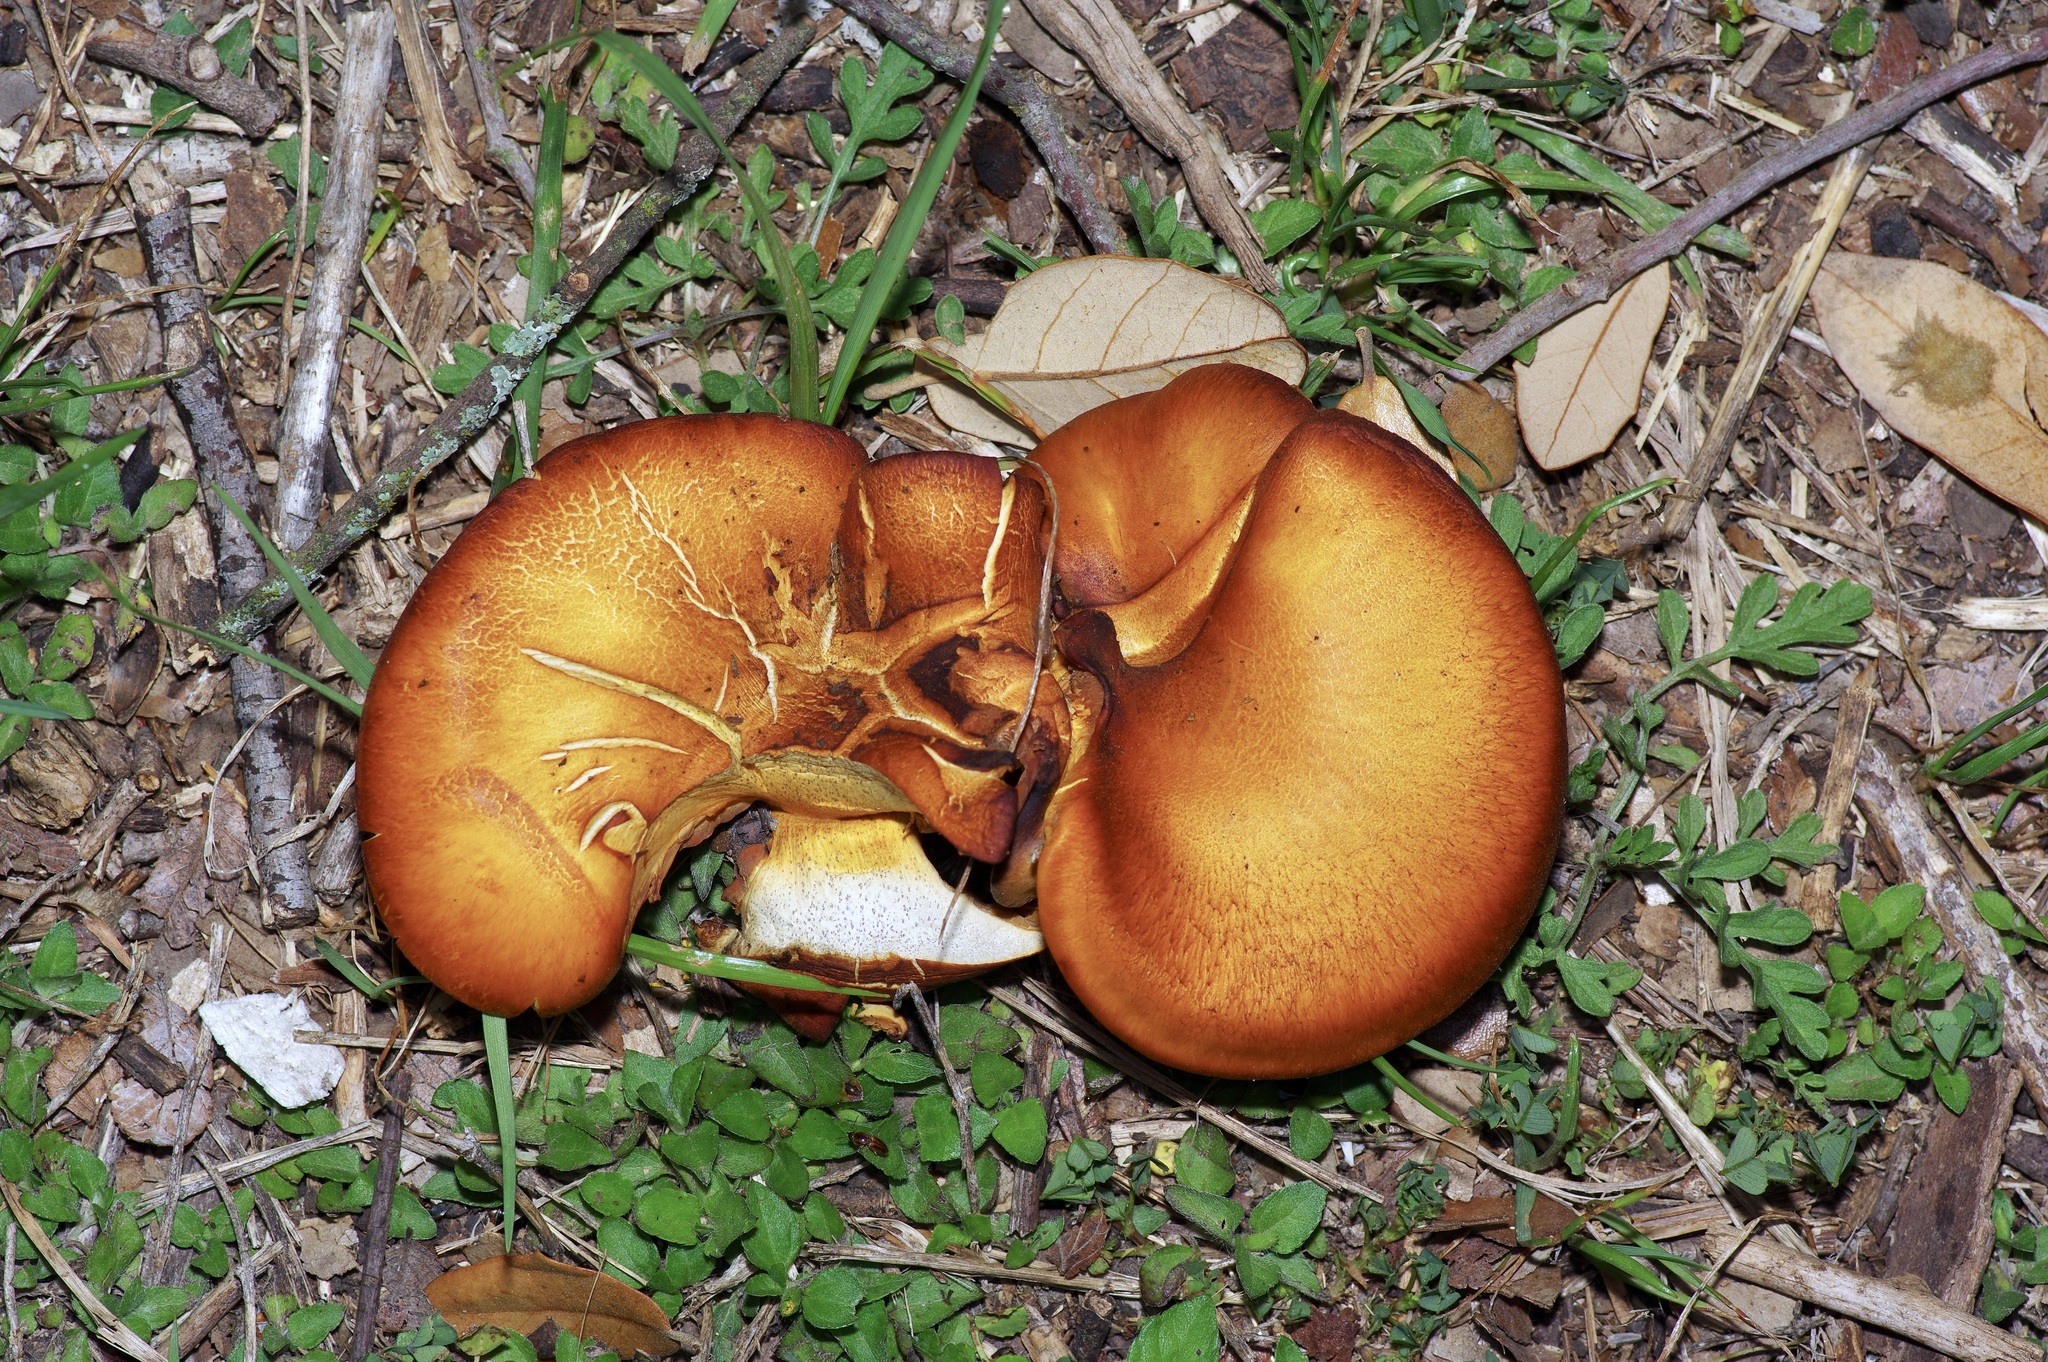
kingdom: Fungi
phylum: Basidiomycota
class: Agaricomycetes
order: Agaricales
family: Omphalotaceae
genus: Omphalotus
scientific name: Omphalotus subilludens
